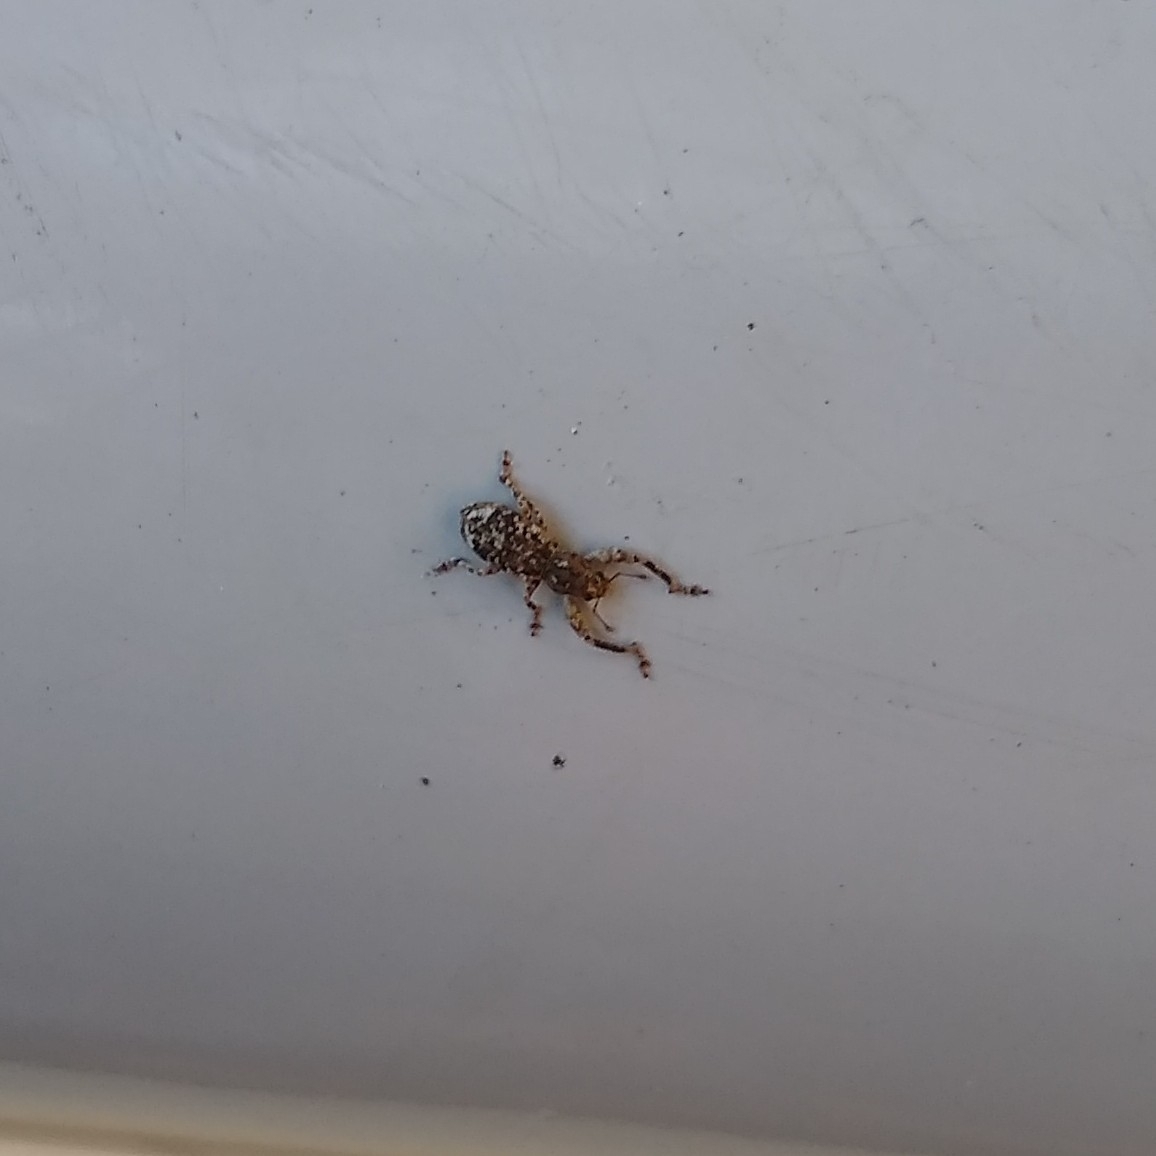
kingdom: Animalia
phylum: Arthropoda
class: Insecta
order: Coleoptera
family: Curculionidae
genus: Pandeleteius
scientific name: Pandeleteius hilaris
